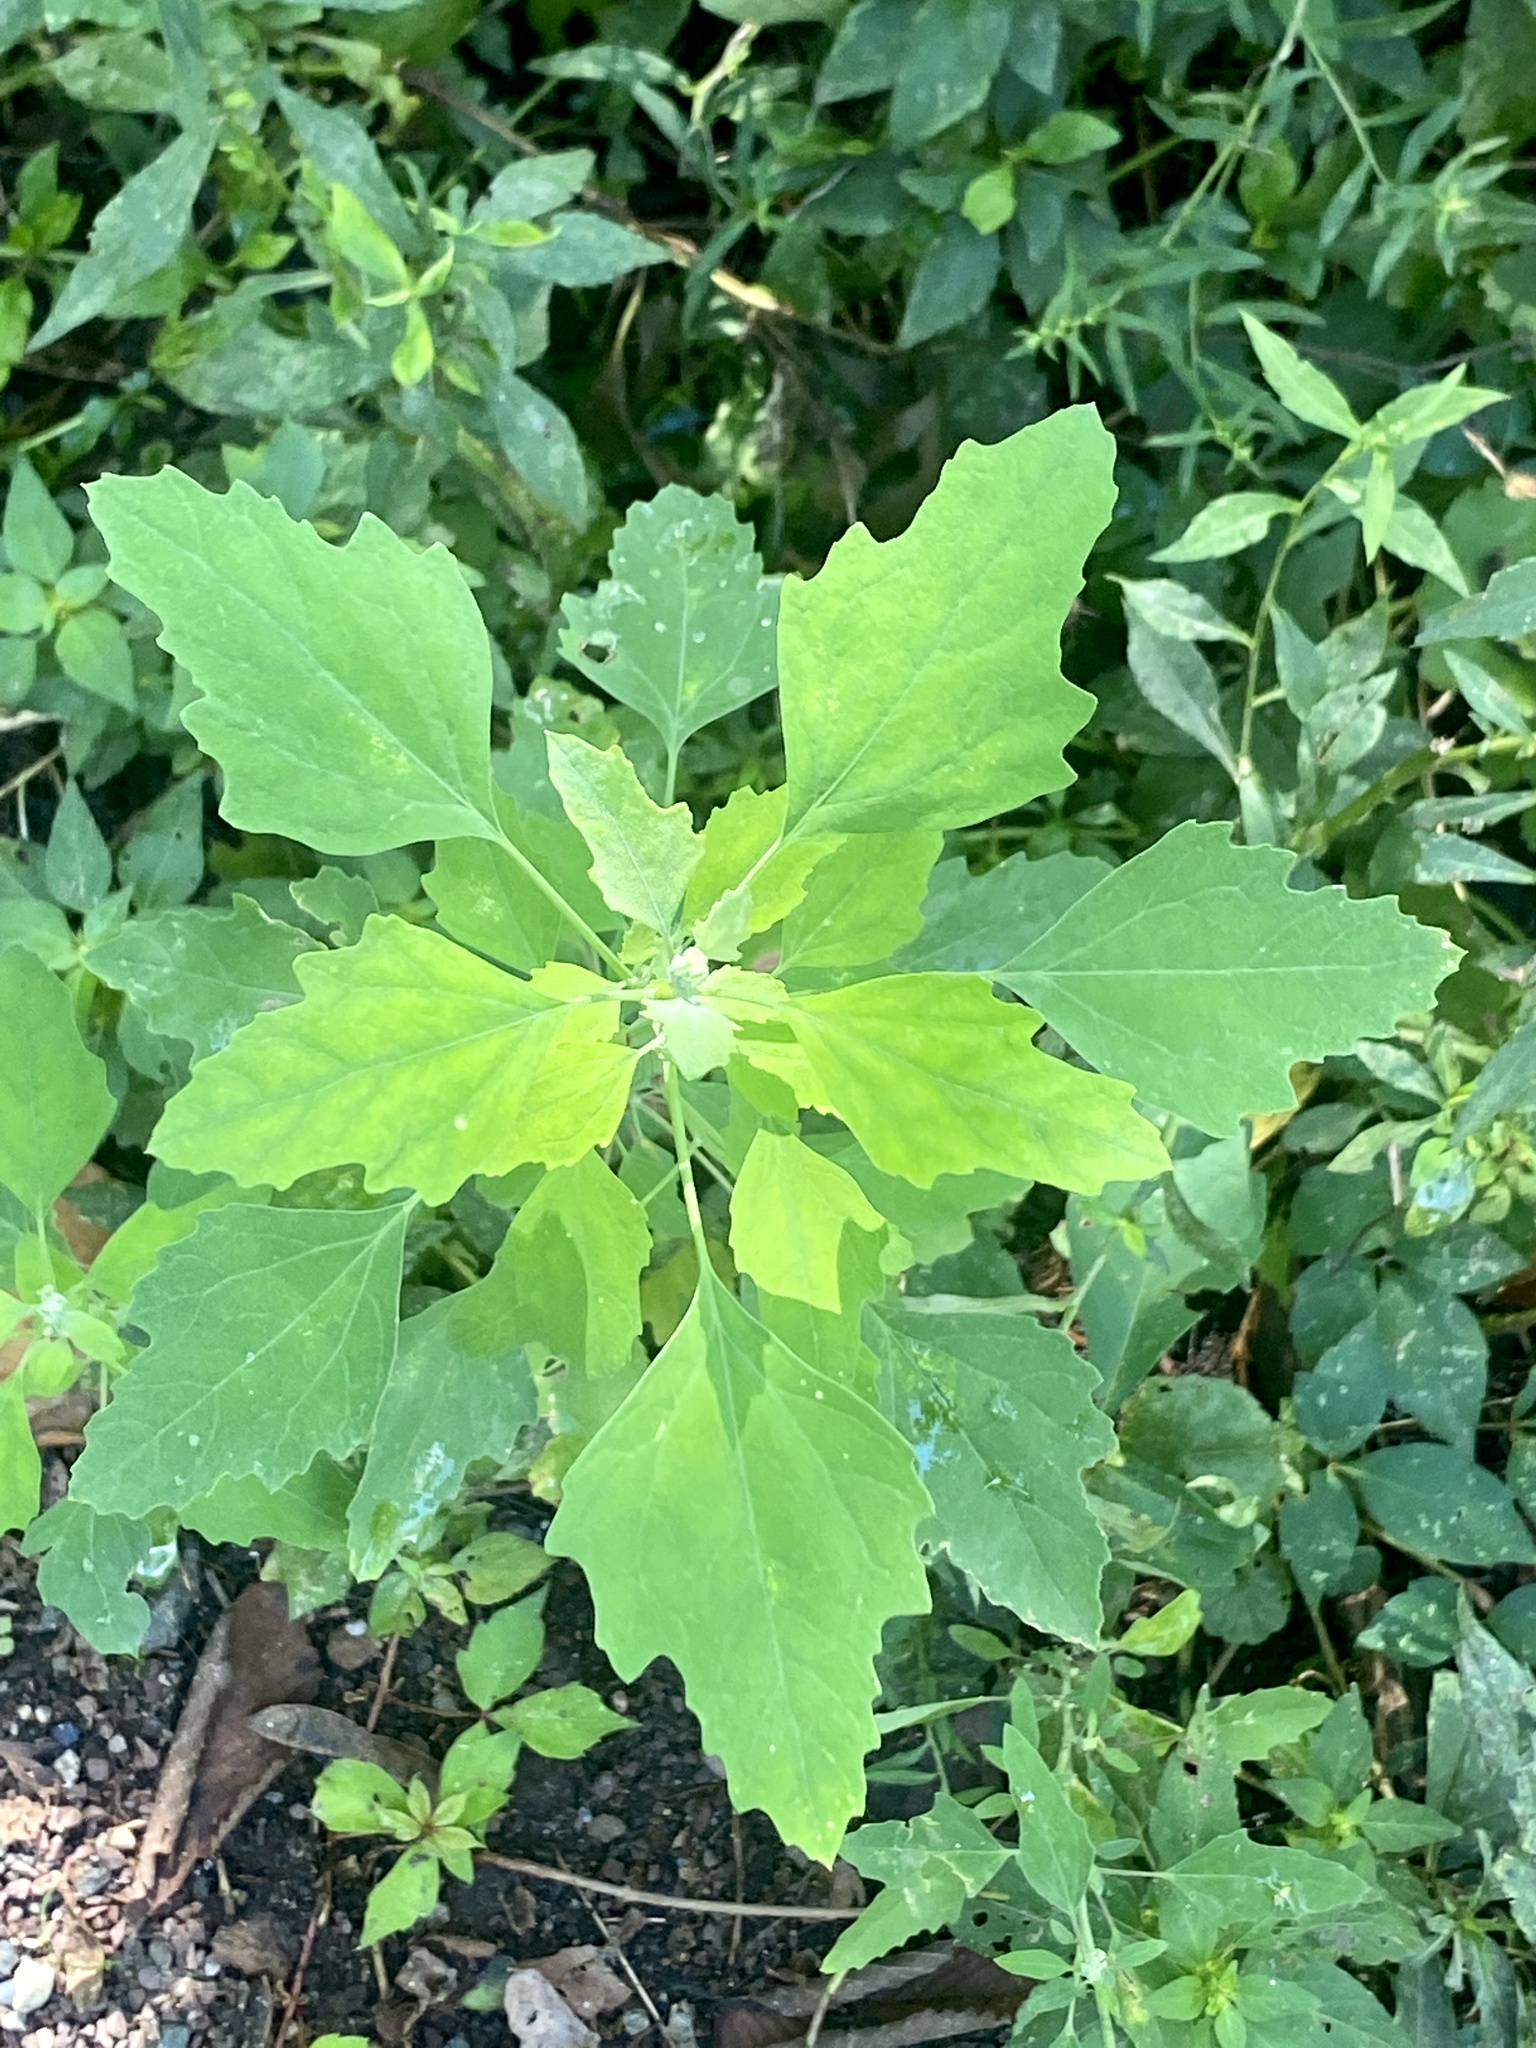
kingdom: Plantae
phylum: Tracheophyta
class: Magnoliopsida
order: Caryophyllales
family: Amaranthaceae
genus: Chenopodium
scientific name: Chenopodium album
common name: Fat-hen
